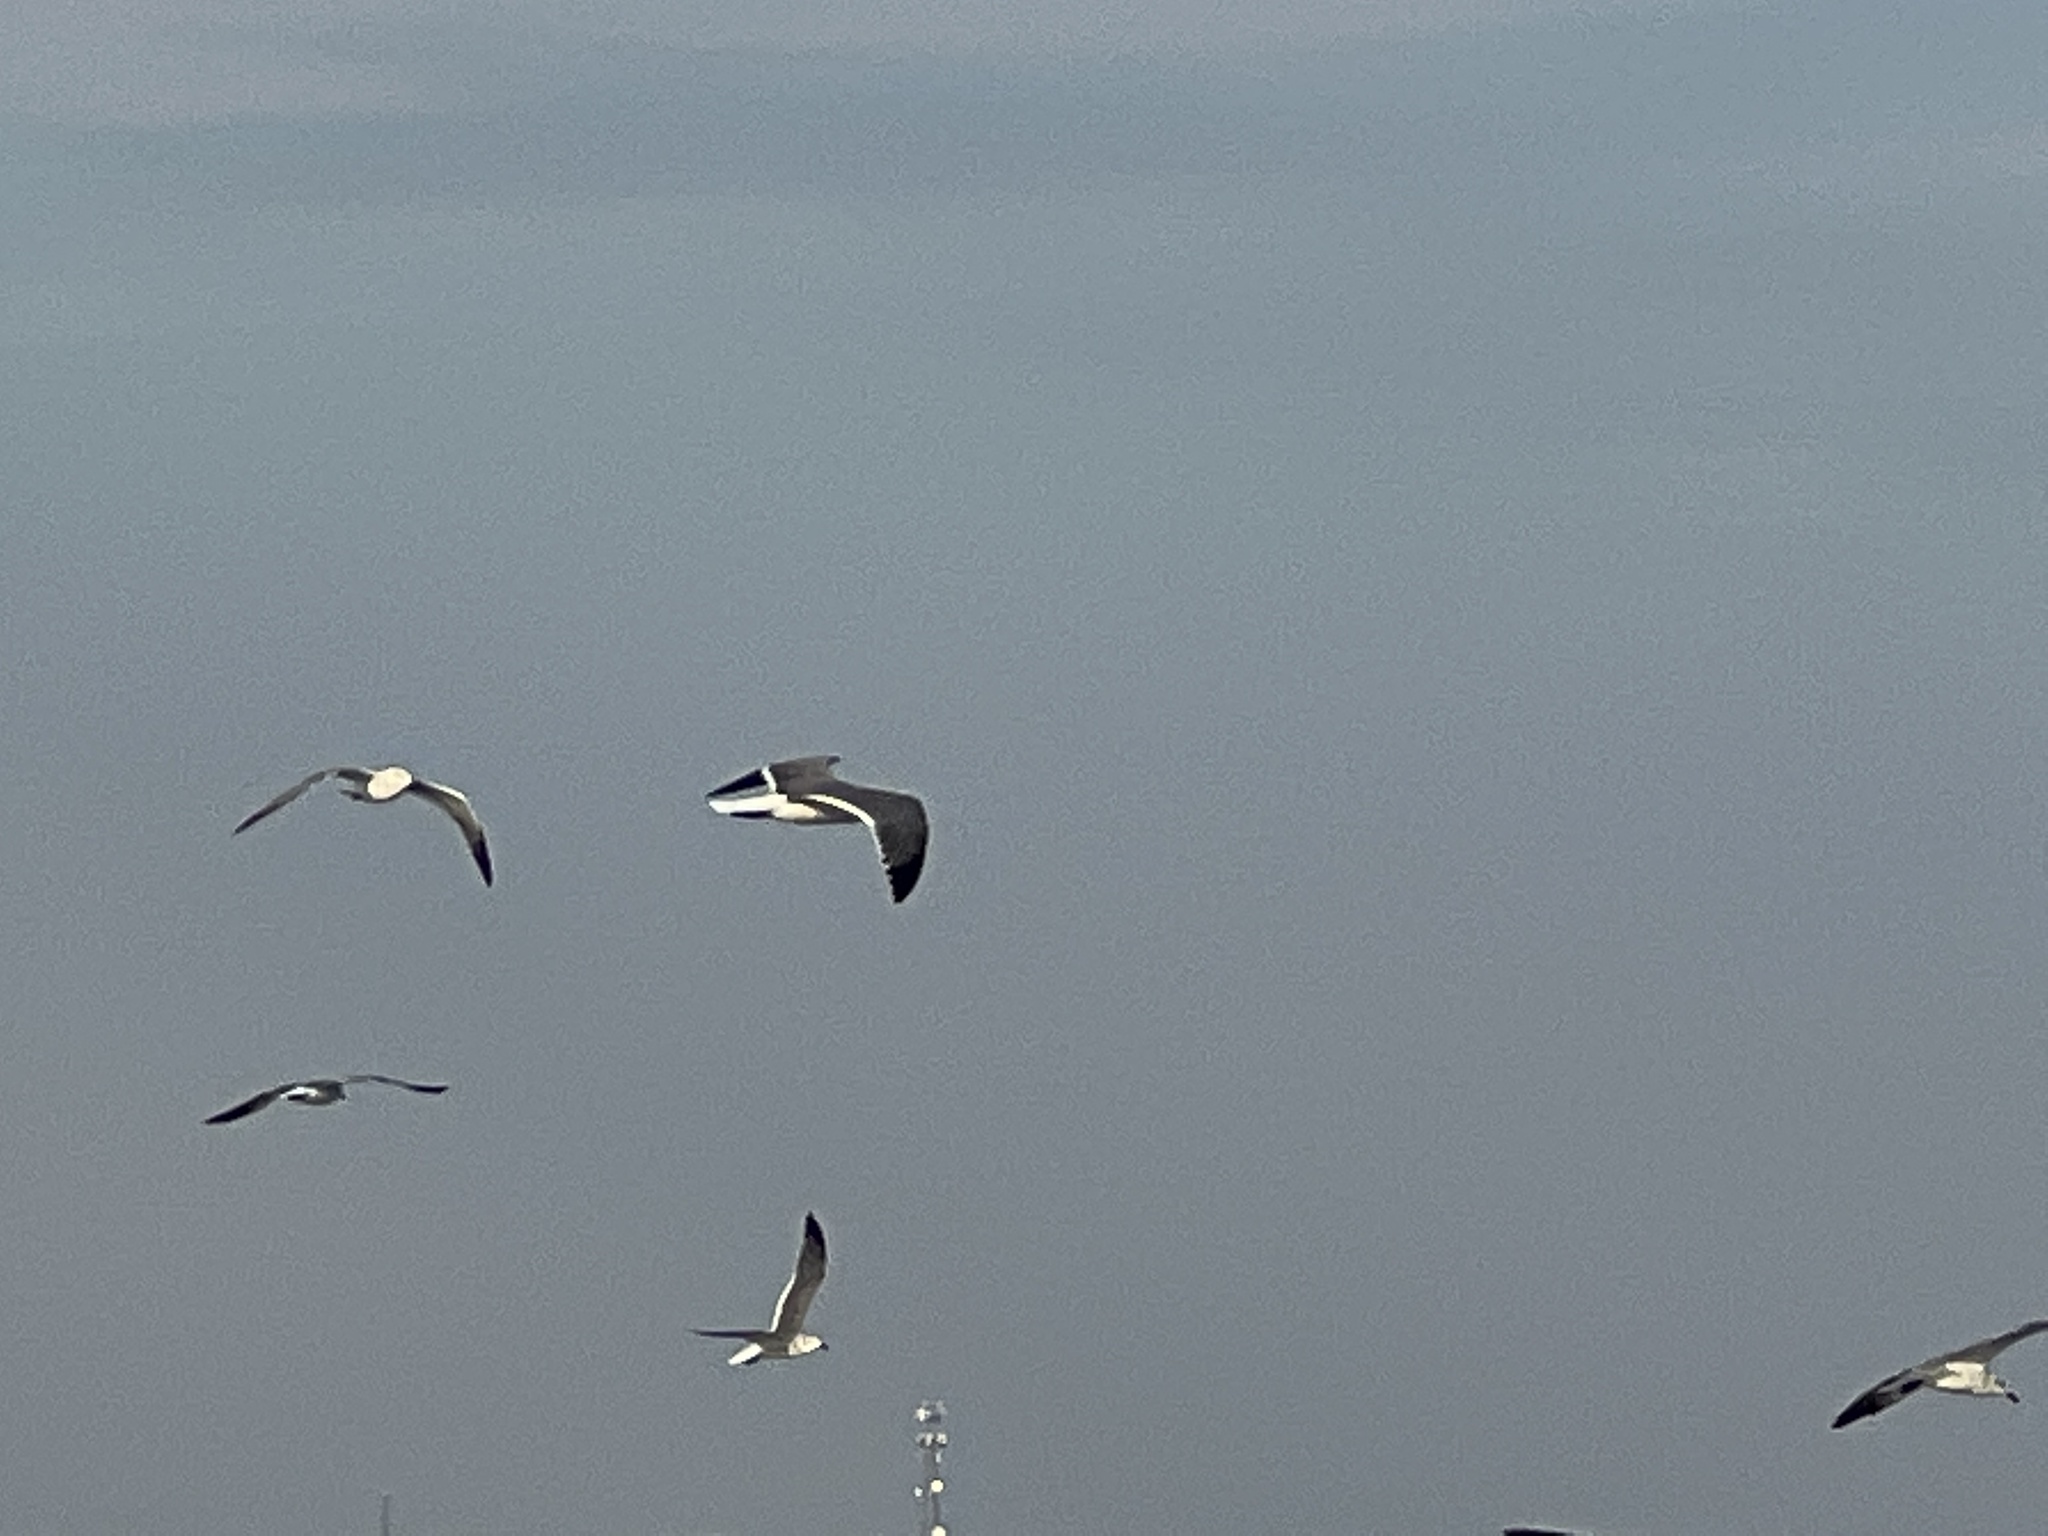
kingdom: Animalia
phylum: Chordata
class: Aves
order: Charadriiformes
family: Laridae
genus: Leucophaeus
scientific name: Leucophaeus atricilla
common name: Laughing gull
